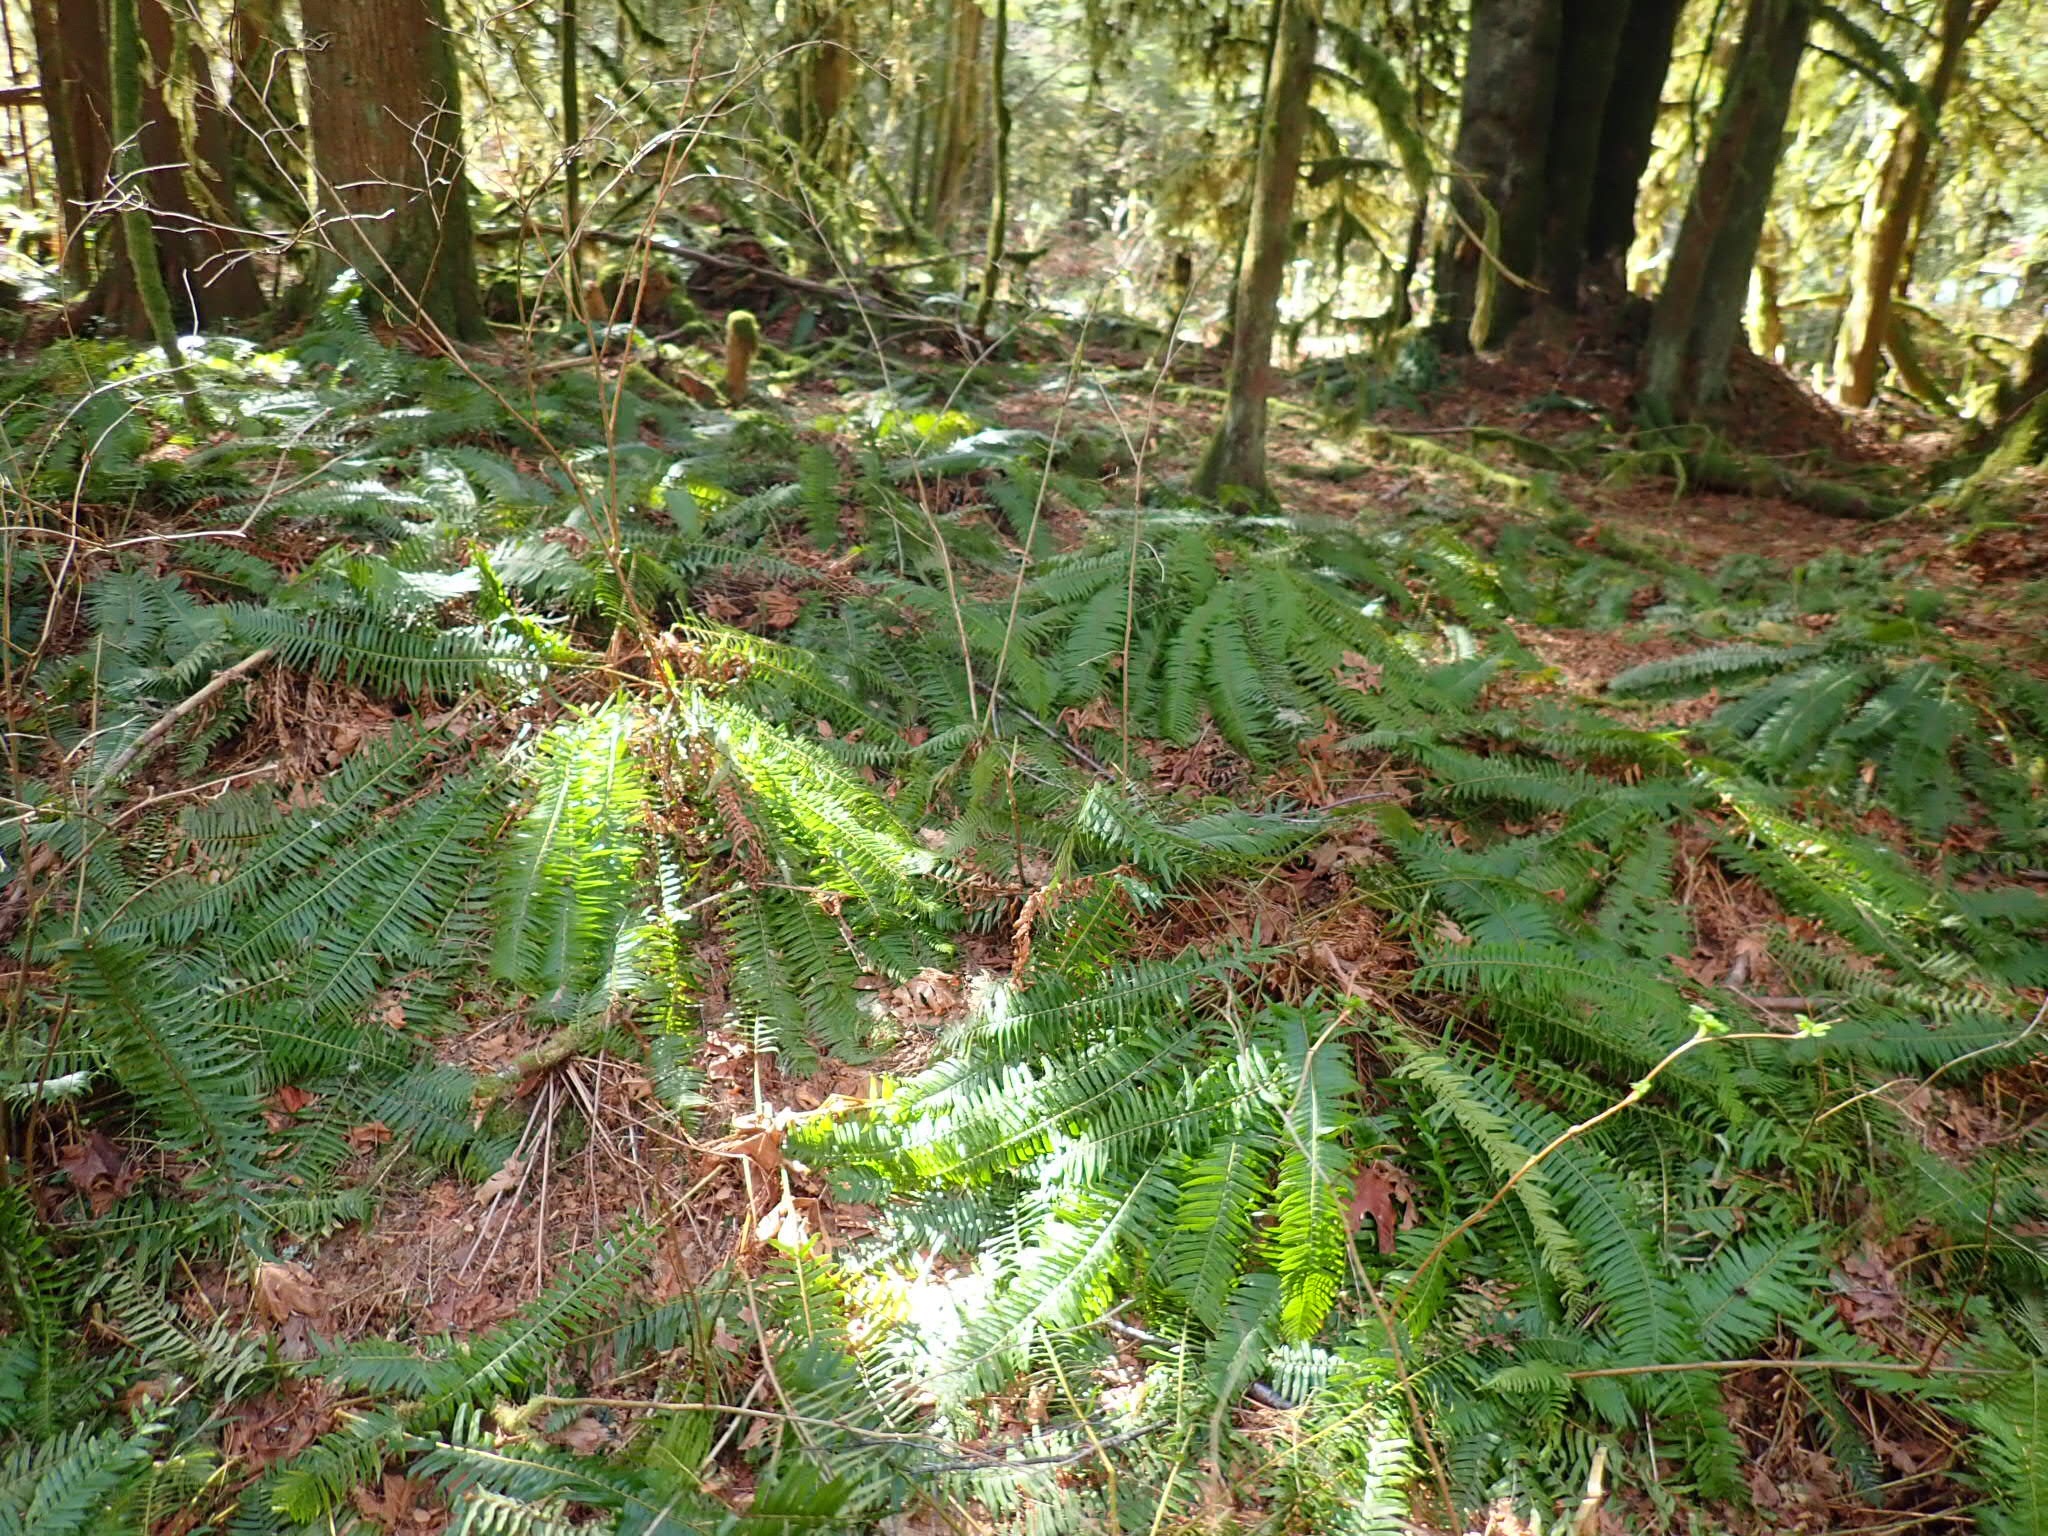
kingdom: Plantae
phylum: Tracheophyta
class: Polypodiopsida
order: Polypodiales
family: Dryopteridaceae
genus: Polystichum
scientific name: Polystichum munitum
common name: Western sword-fern
